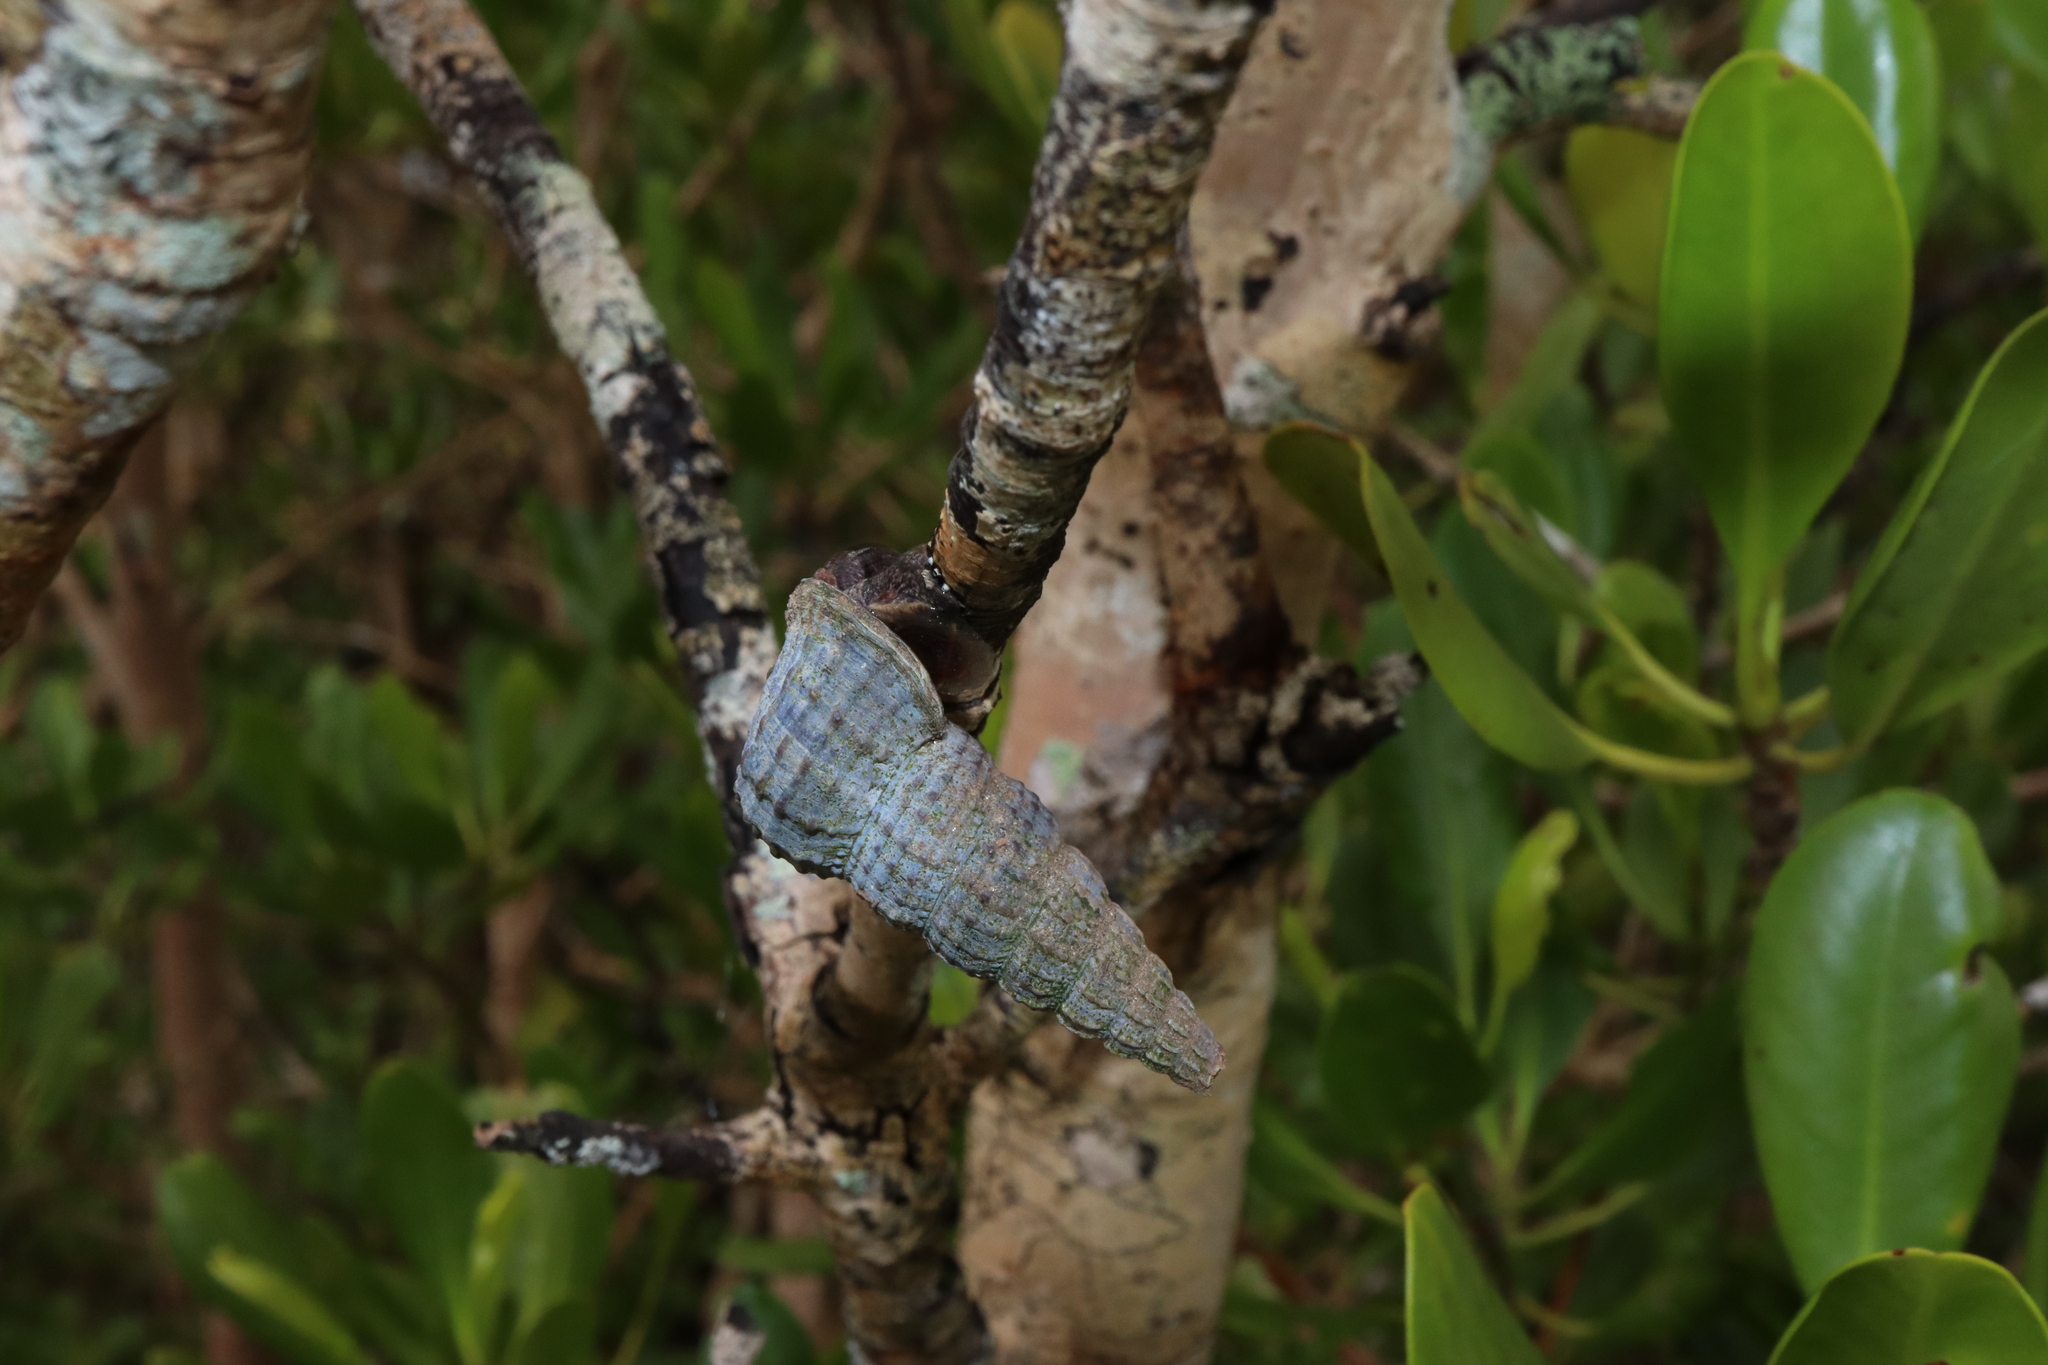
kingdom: Animalia
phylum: Mollusca
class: Gastropoda
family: Potamididae
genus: Cerithidea
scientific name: Cerithidea anticipata
